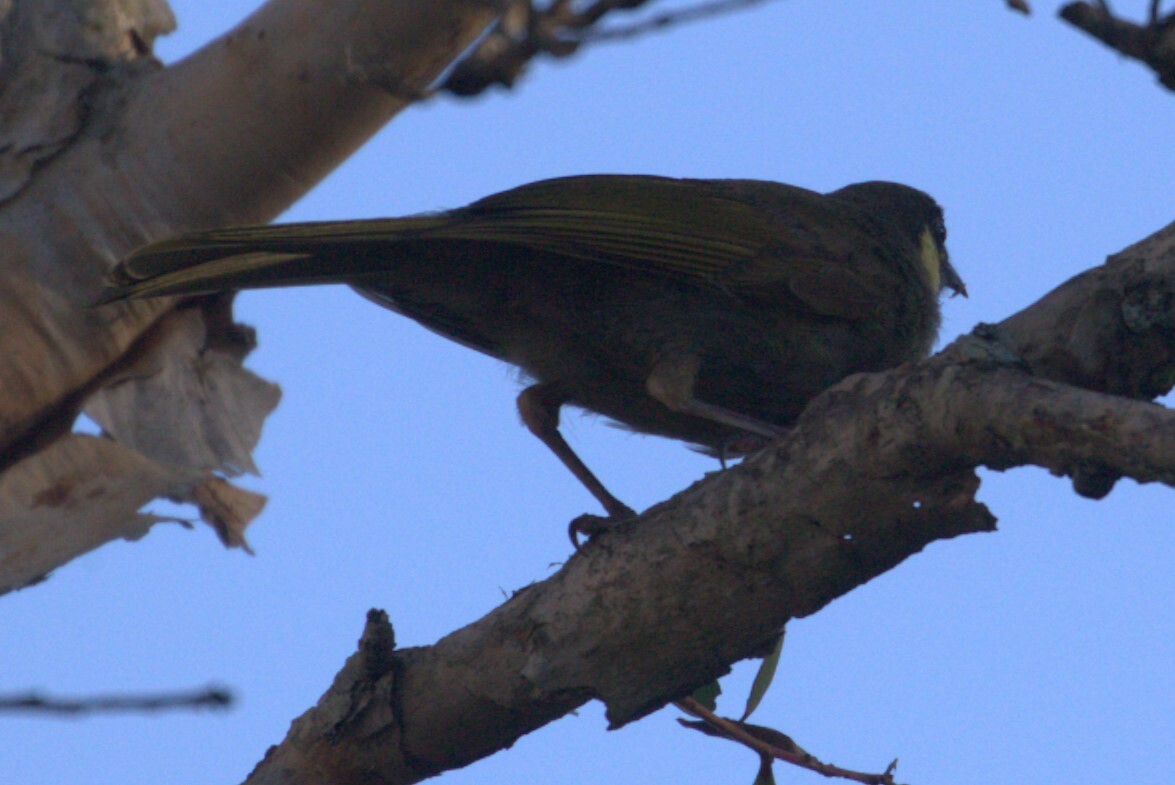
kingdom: Animalia
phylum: Chordata
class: Aves
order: Passeriformes
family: Meliphagidae
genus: Meliphaga
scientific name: Meliphaga lewinii
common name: Lewin's honeyeater
